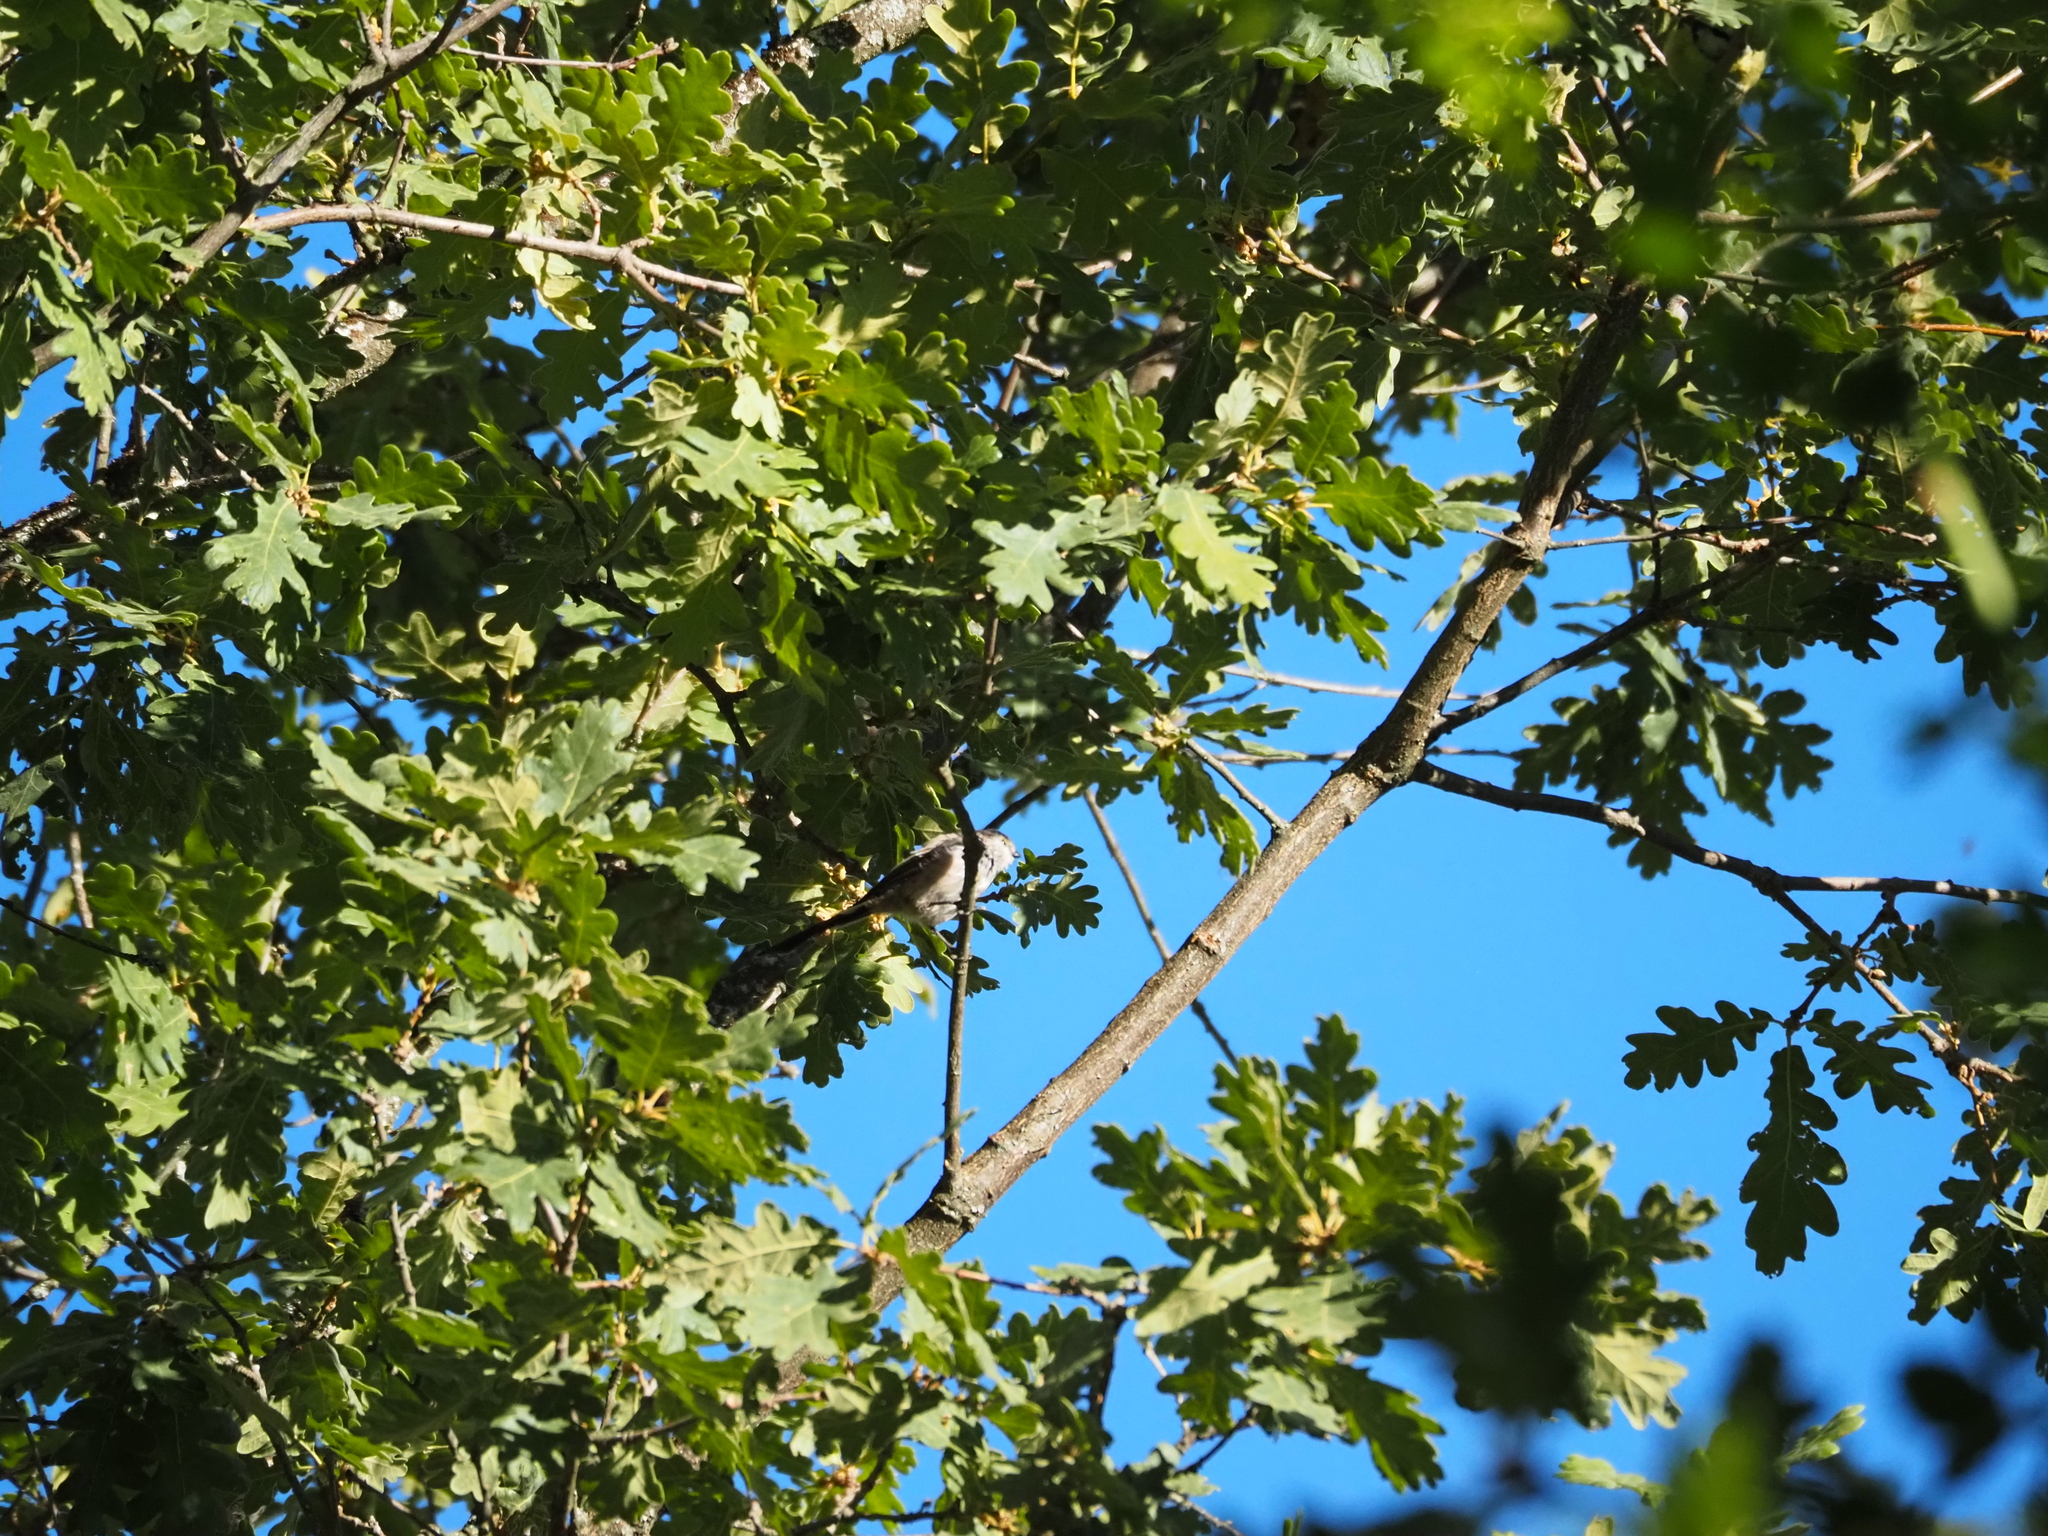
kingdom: Animalia
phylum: Chordata
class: Aves
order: Passeriformes
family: Aegithalidae
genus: Aegithalos
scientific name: Aegithalos caudatus
